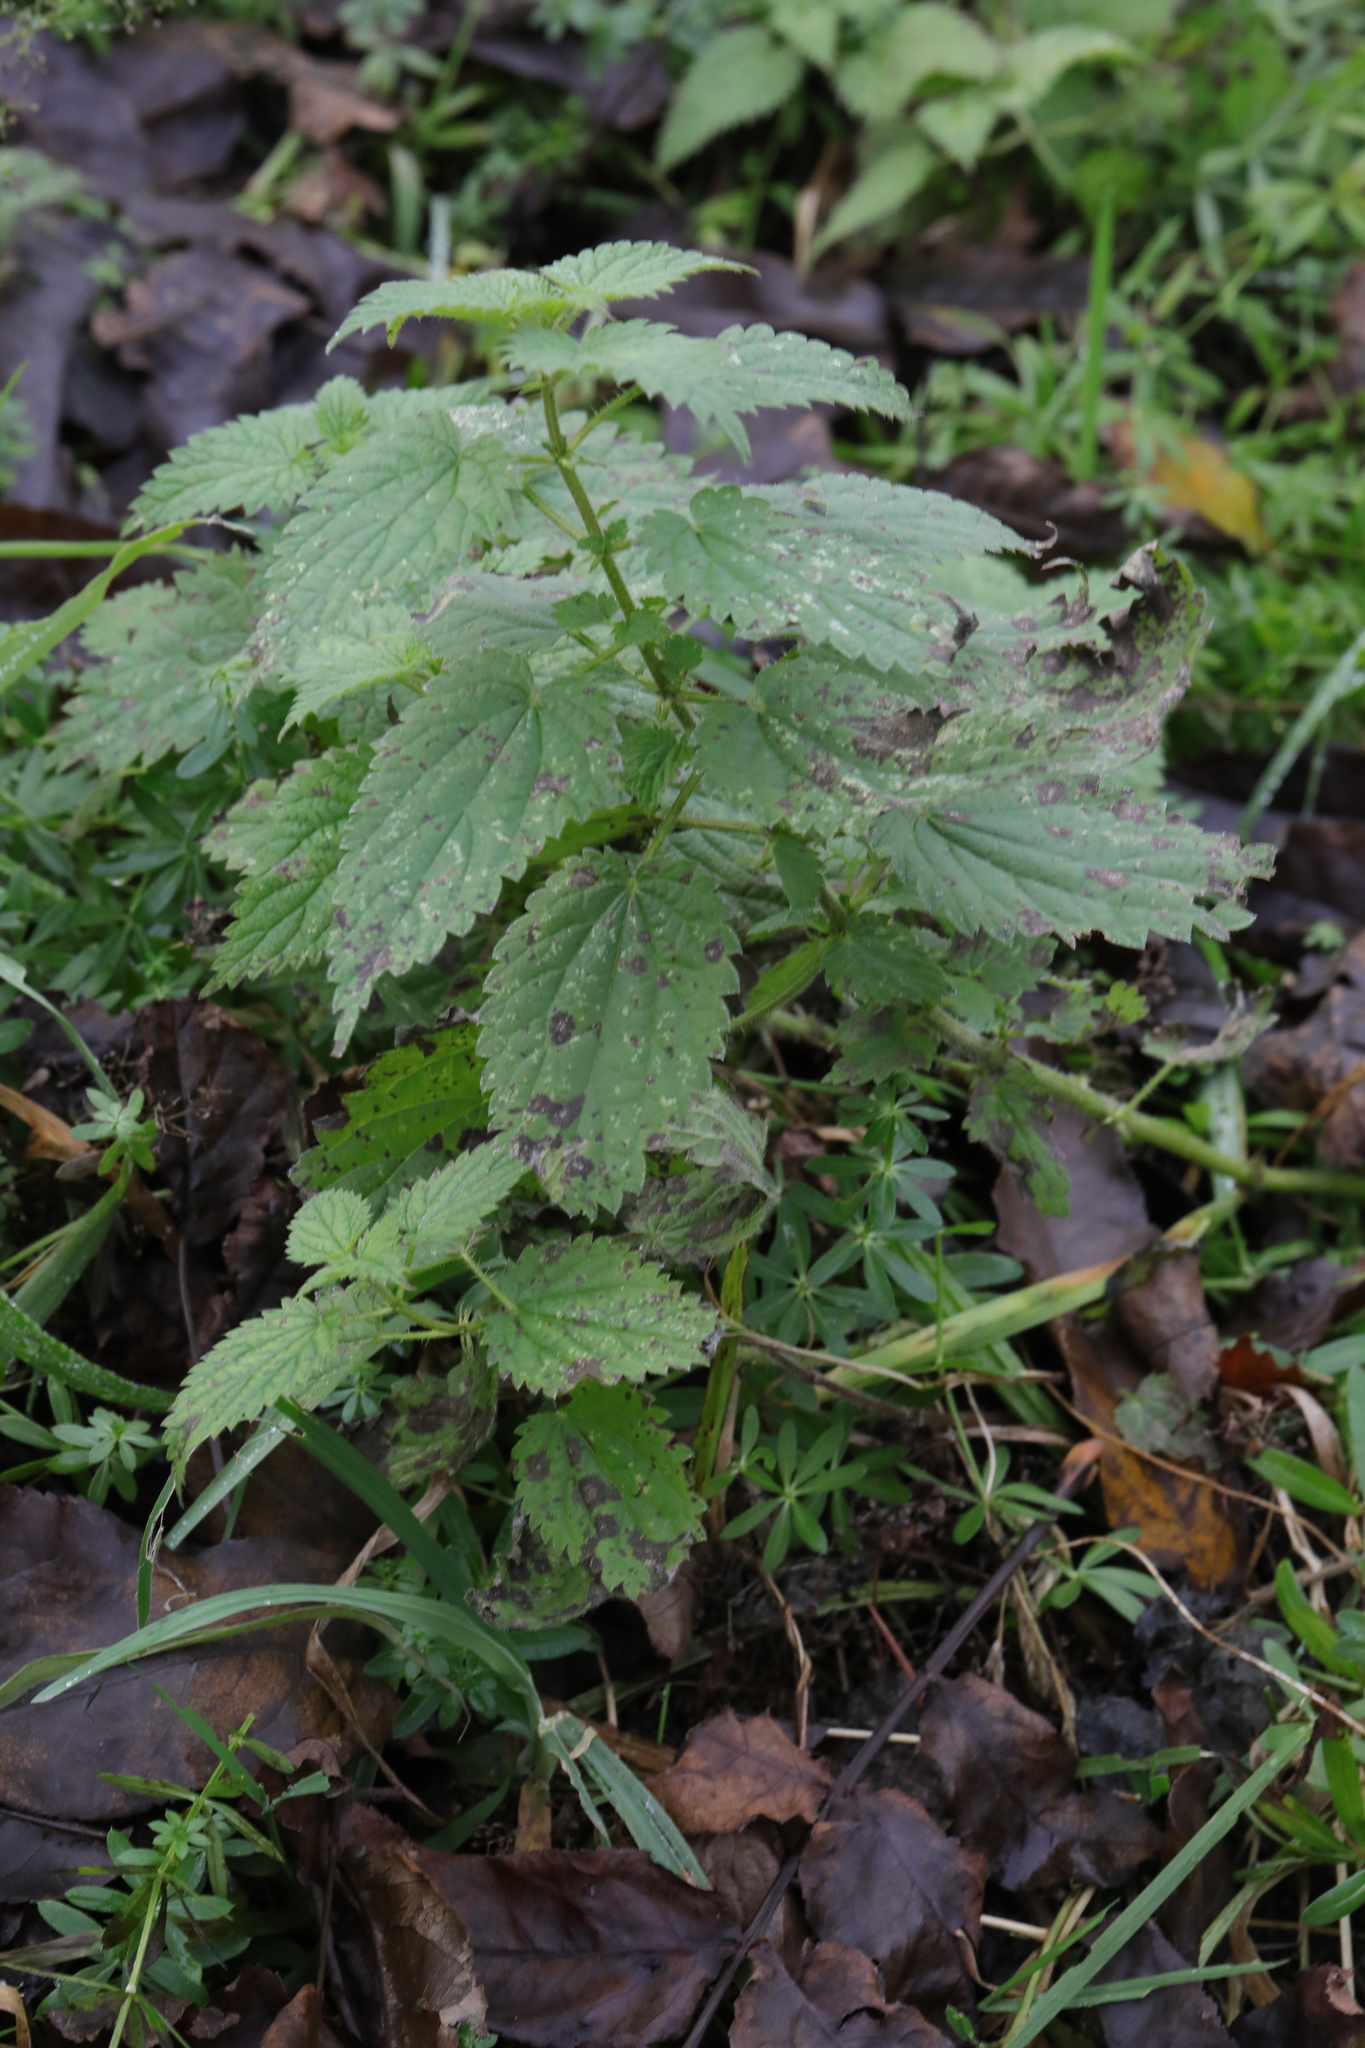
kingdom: Plantae
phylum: Tracheophyta
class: Magnoliopsida
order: Rosales
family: Urticaceae
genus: Urtica
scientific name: Urtica dioica
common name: Common nettle
